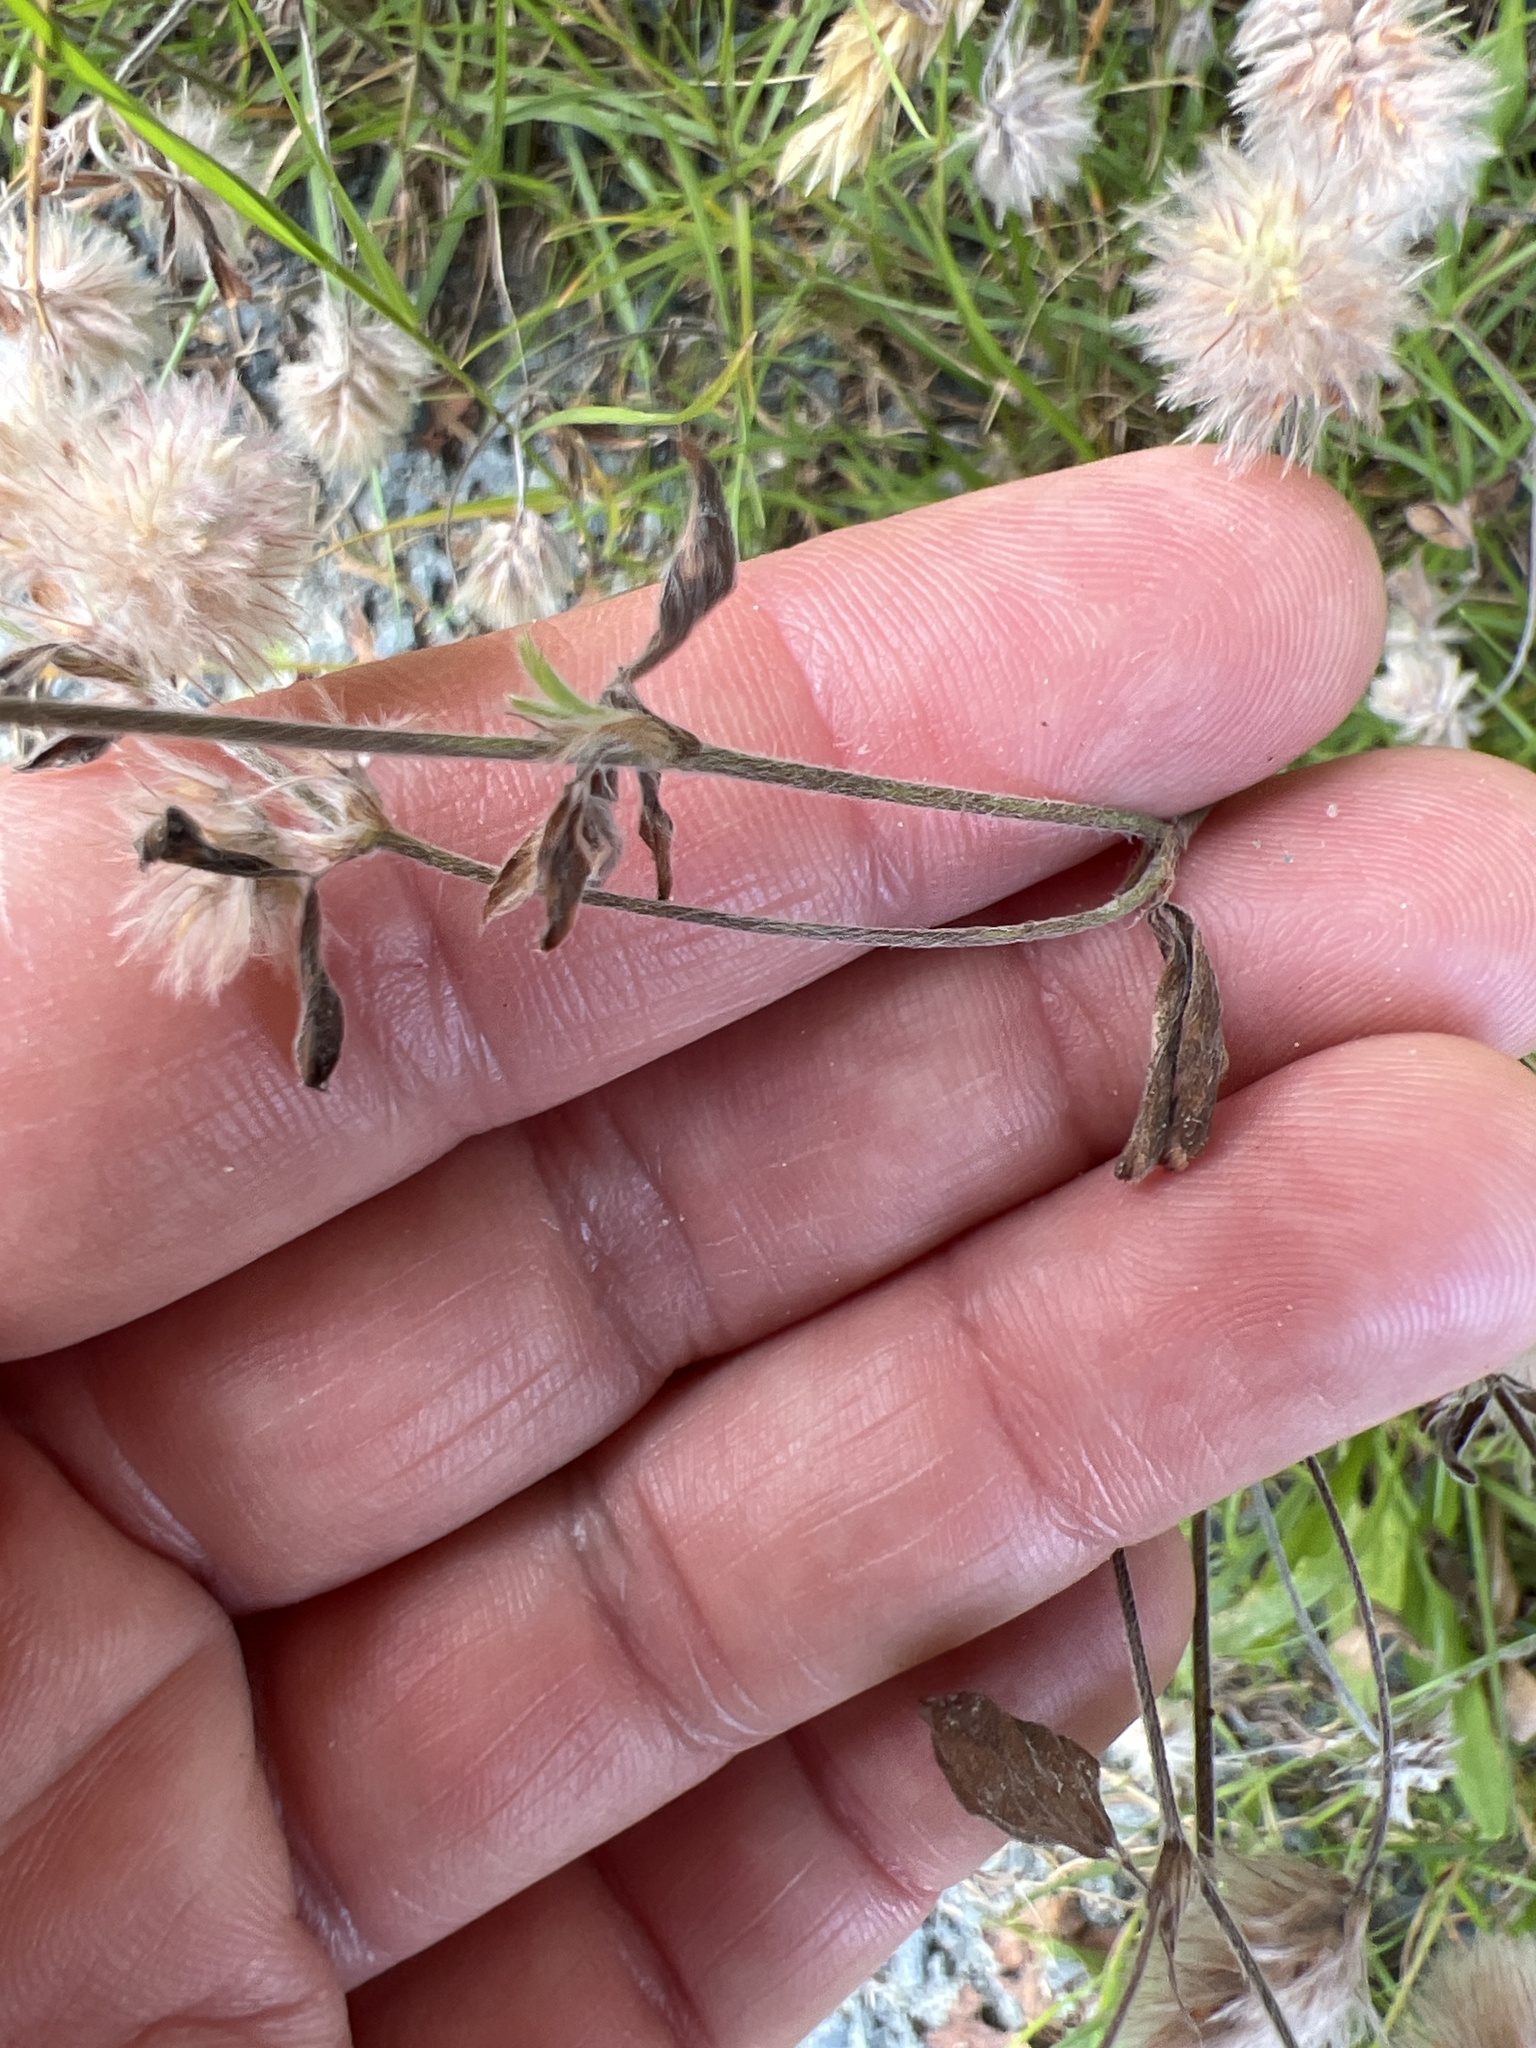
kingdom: Plantae
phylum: Tracheophyta
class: Magnoliopsida
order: Fabales
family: Fabaceae
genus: Trifolium
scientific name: Trifolium arvense
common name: Hare's-foot clover
